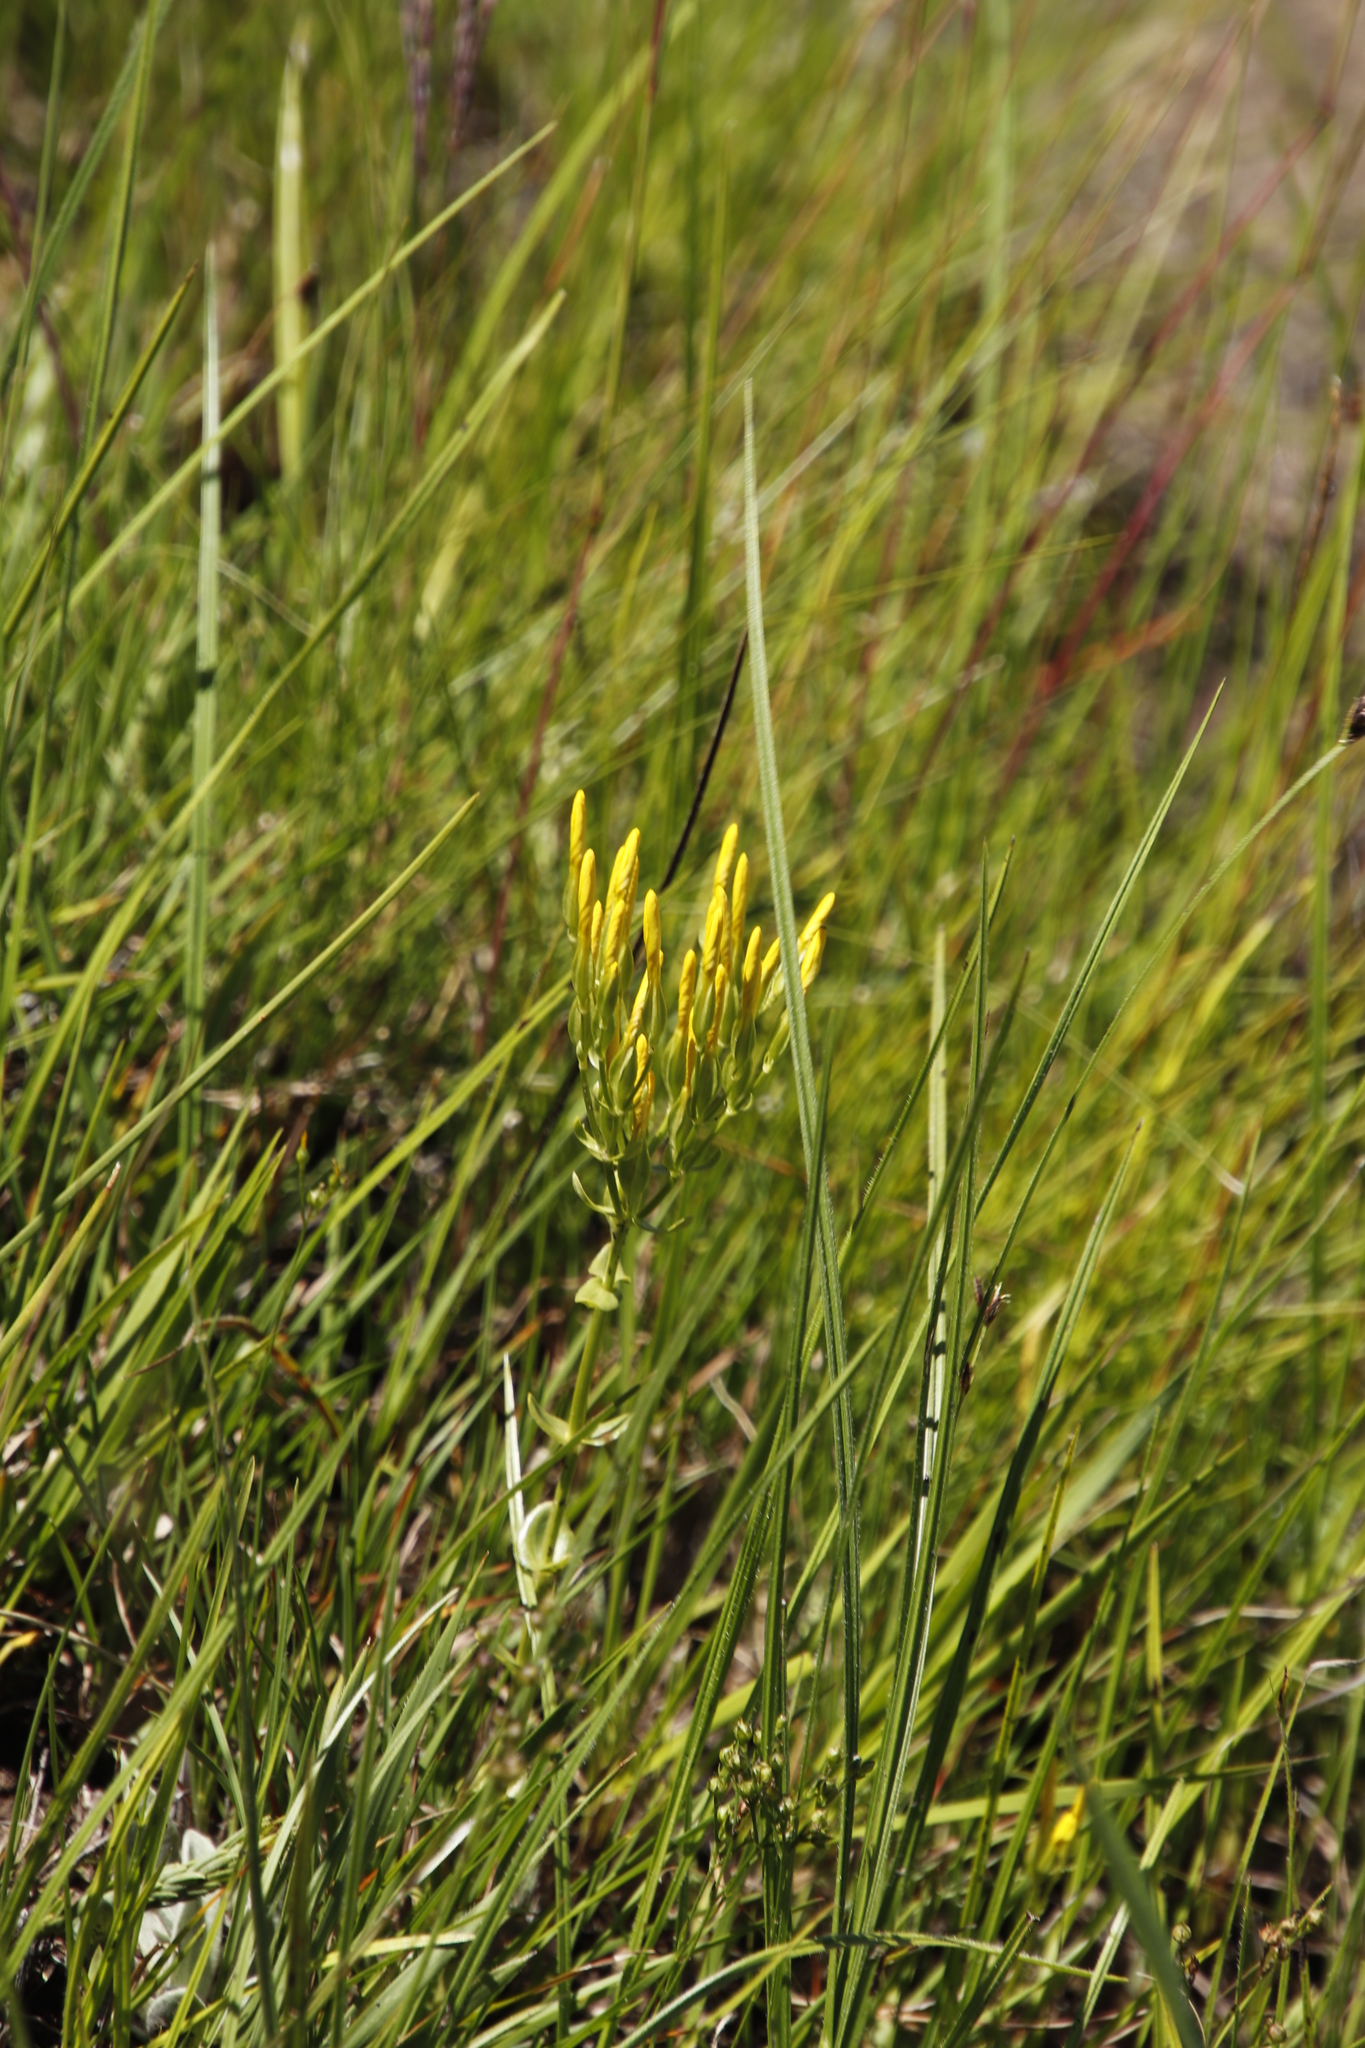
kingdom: Plantae
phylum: Tracheophyta
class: Magnoliopsida
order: Gentianales
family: Gentianaceae
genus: Sebaea
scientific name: Sebaea natalensis
